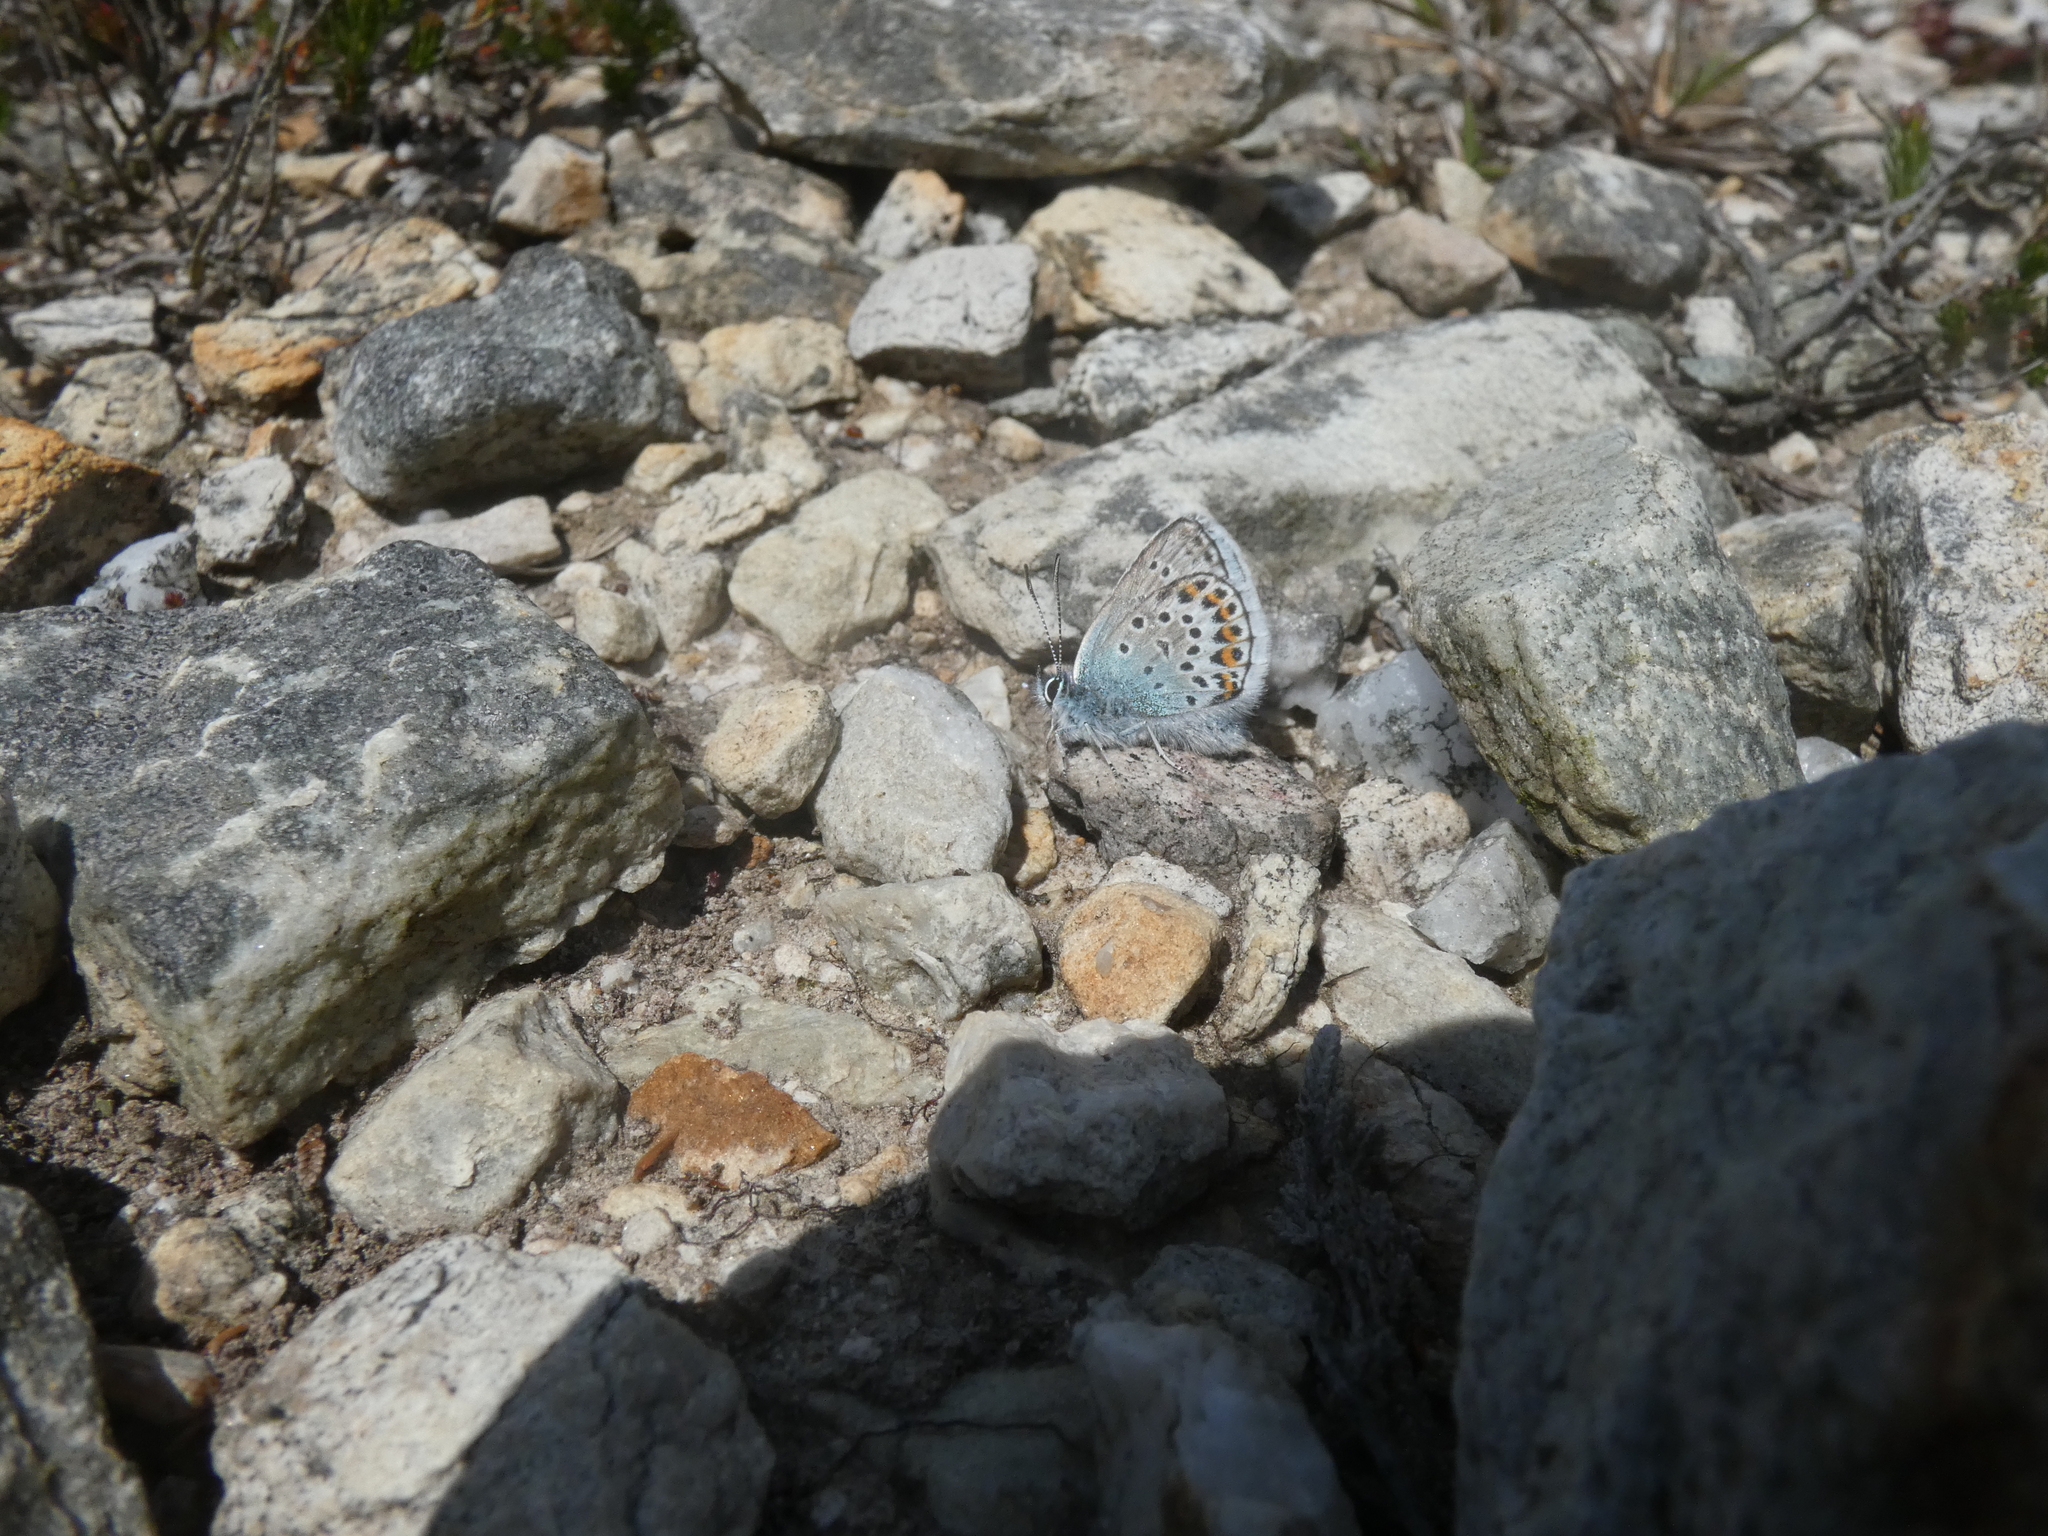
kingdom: Animalia
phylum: Arthropoda
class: Insecta
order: Lepidoptera
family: Lycaenidae
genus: Plebejus
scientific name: Plebejus argus
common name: Silver-studded blue
